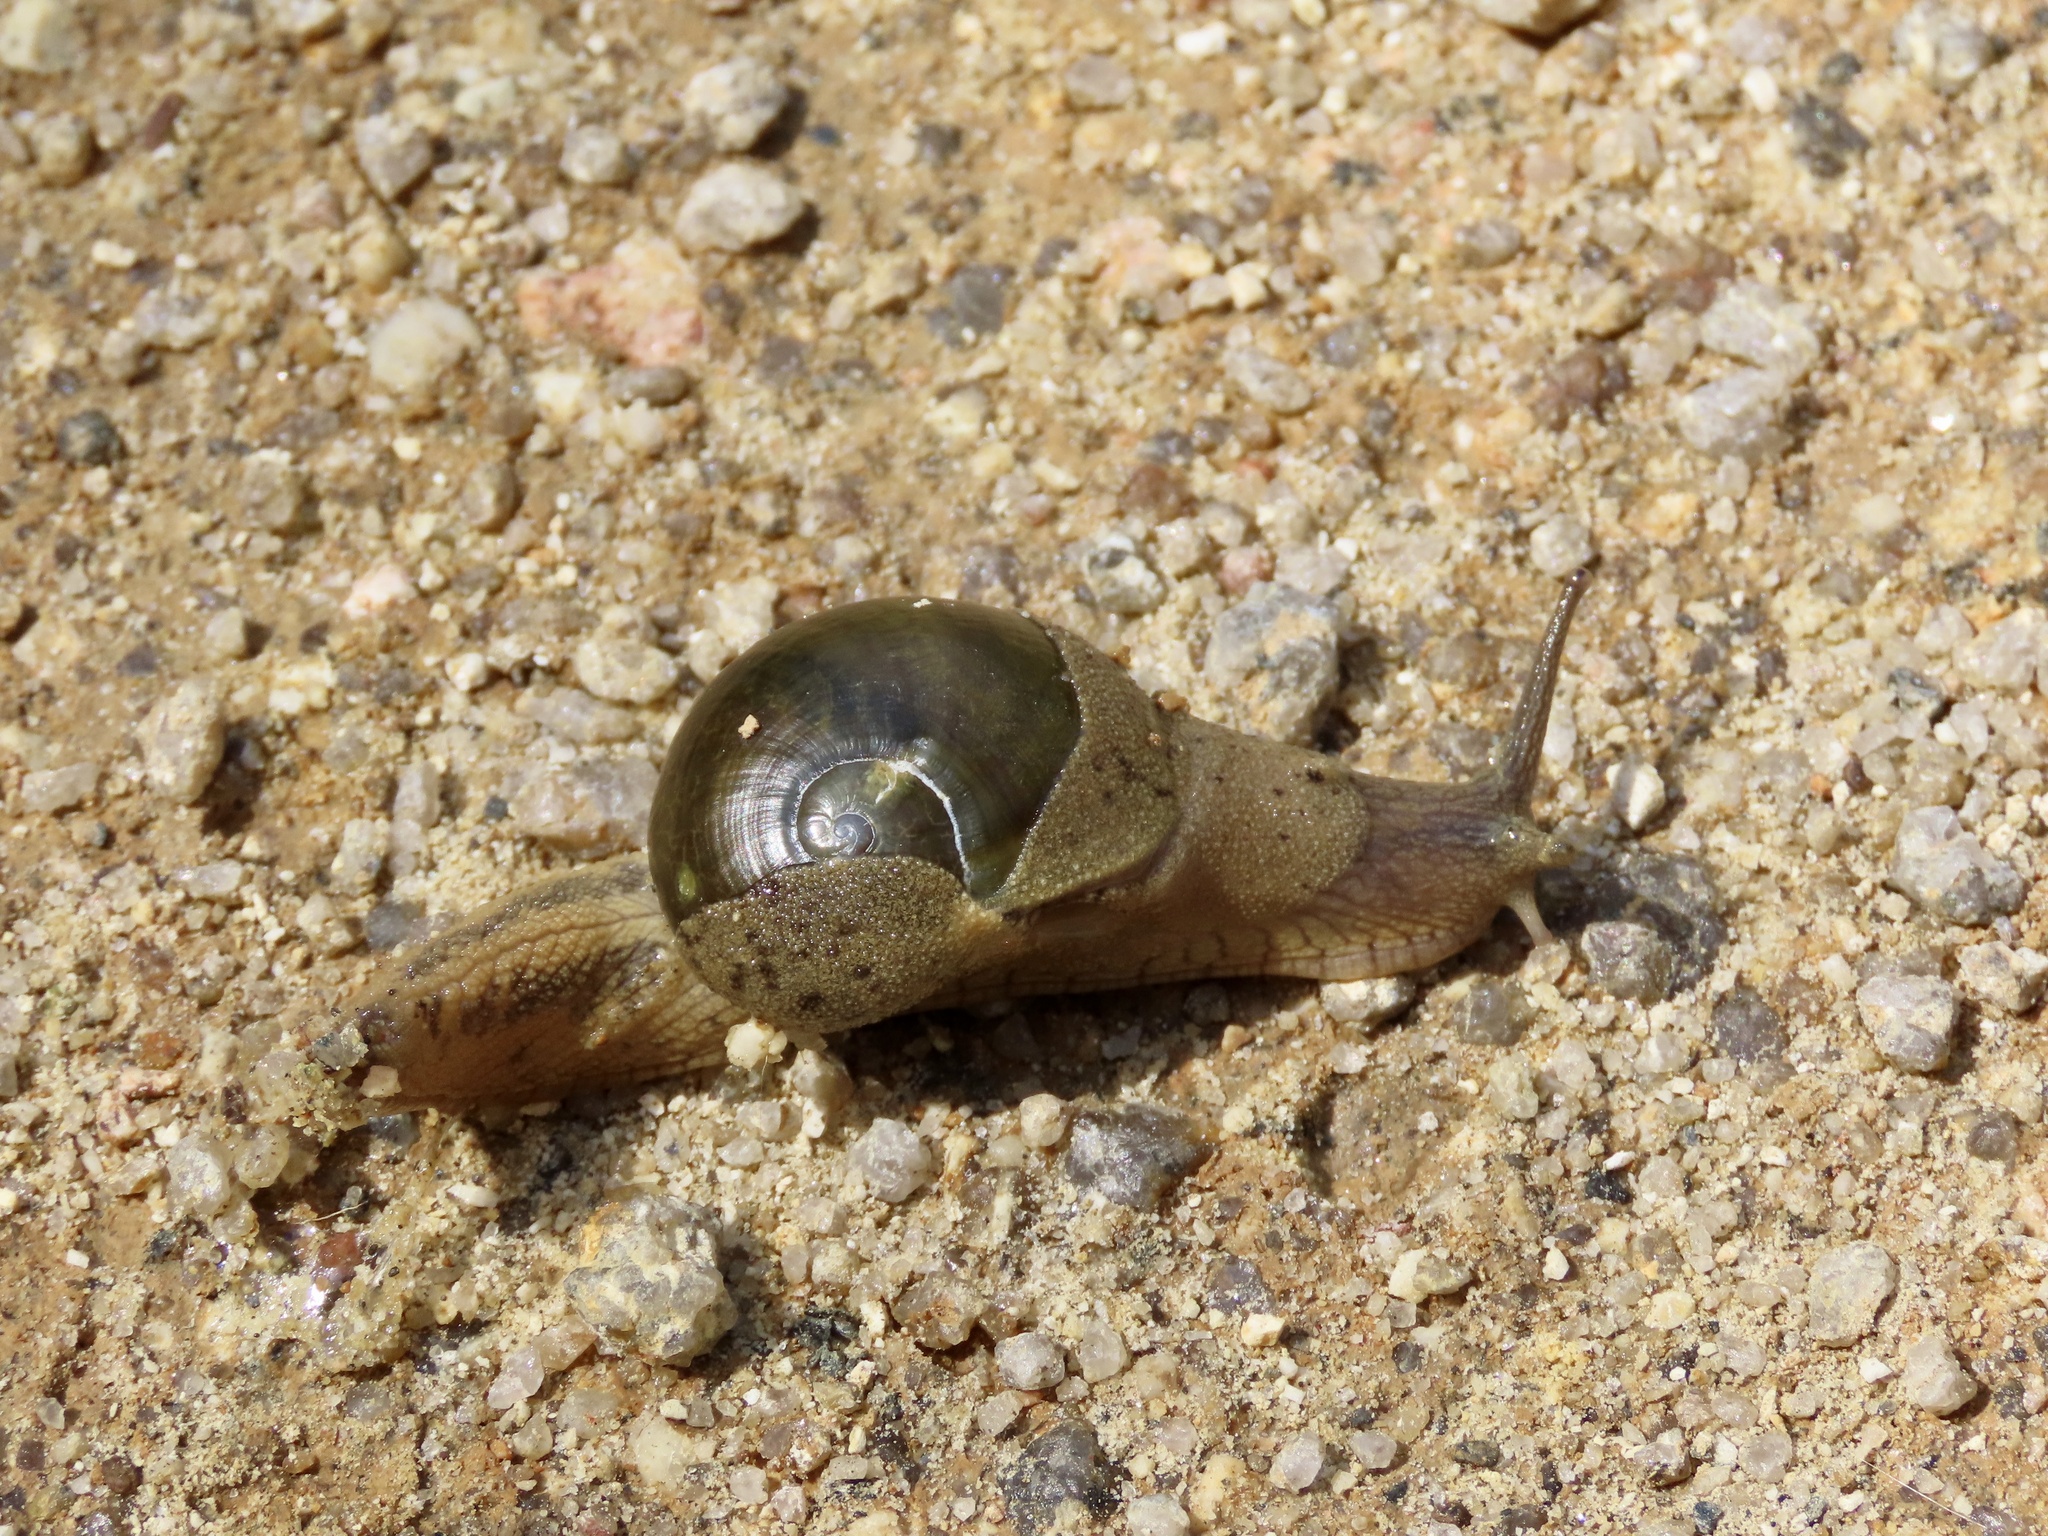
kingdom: Animalia
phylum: Mollusca
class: Gastropoda
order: Stylommatophora
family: Ariophantidae
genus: Megaustenia
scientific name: Megaustenia imperator
